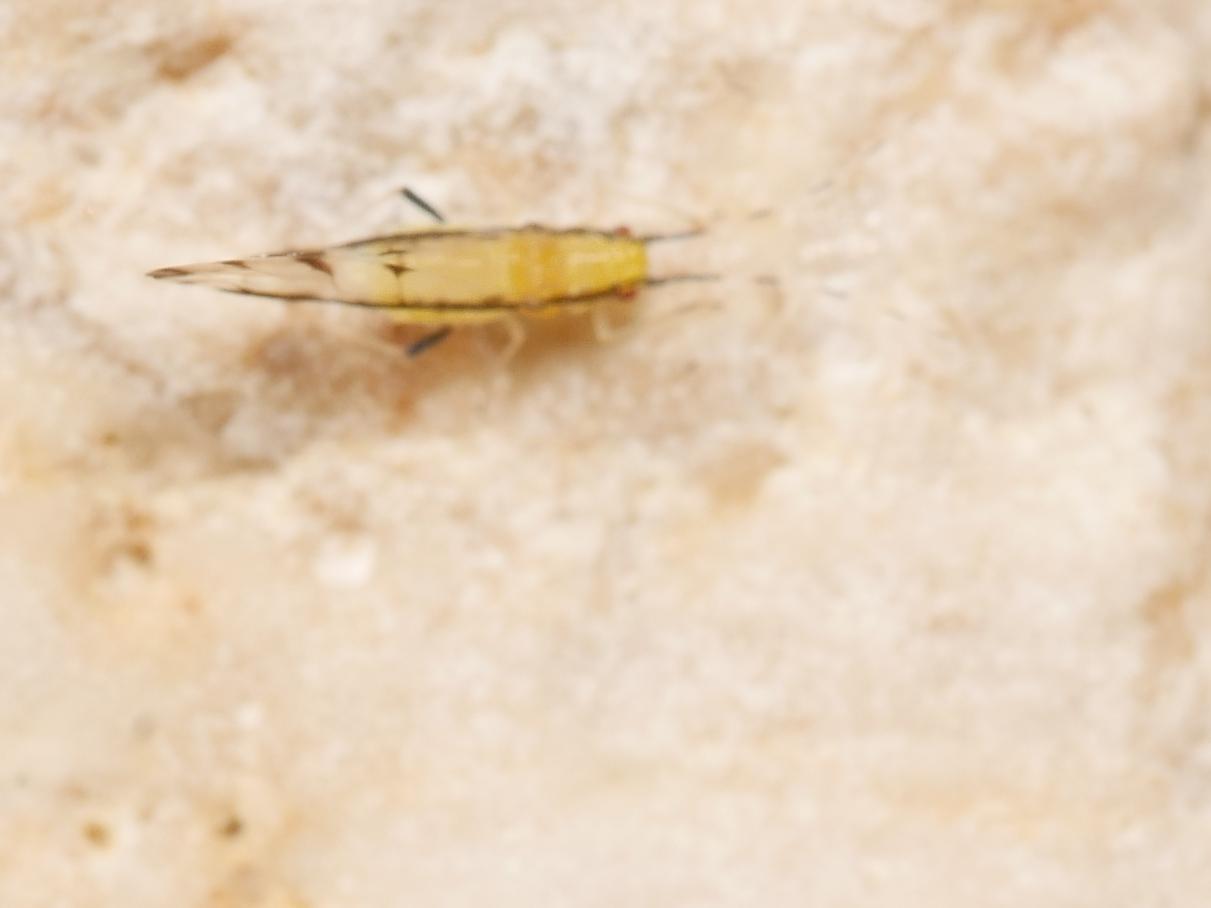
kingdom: Animalia
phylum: Arthropoda
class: Insecta
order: Hemiptera
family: Aphididae
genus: Eucallipterus
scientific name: Eucallipterus tiliae
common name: Aphid
